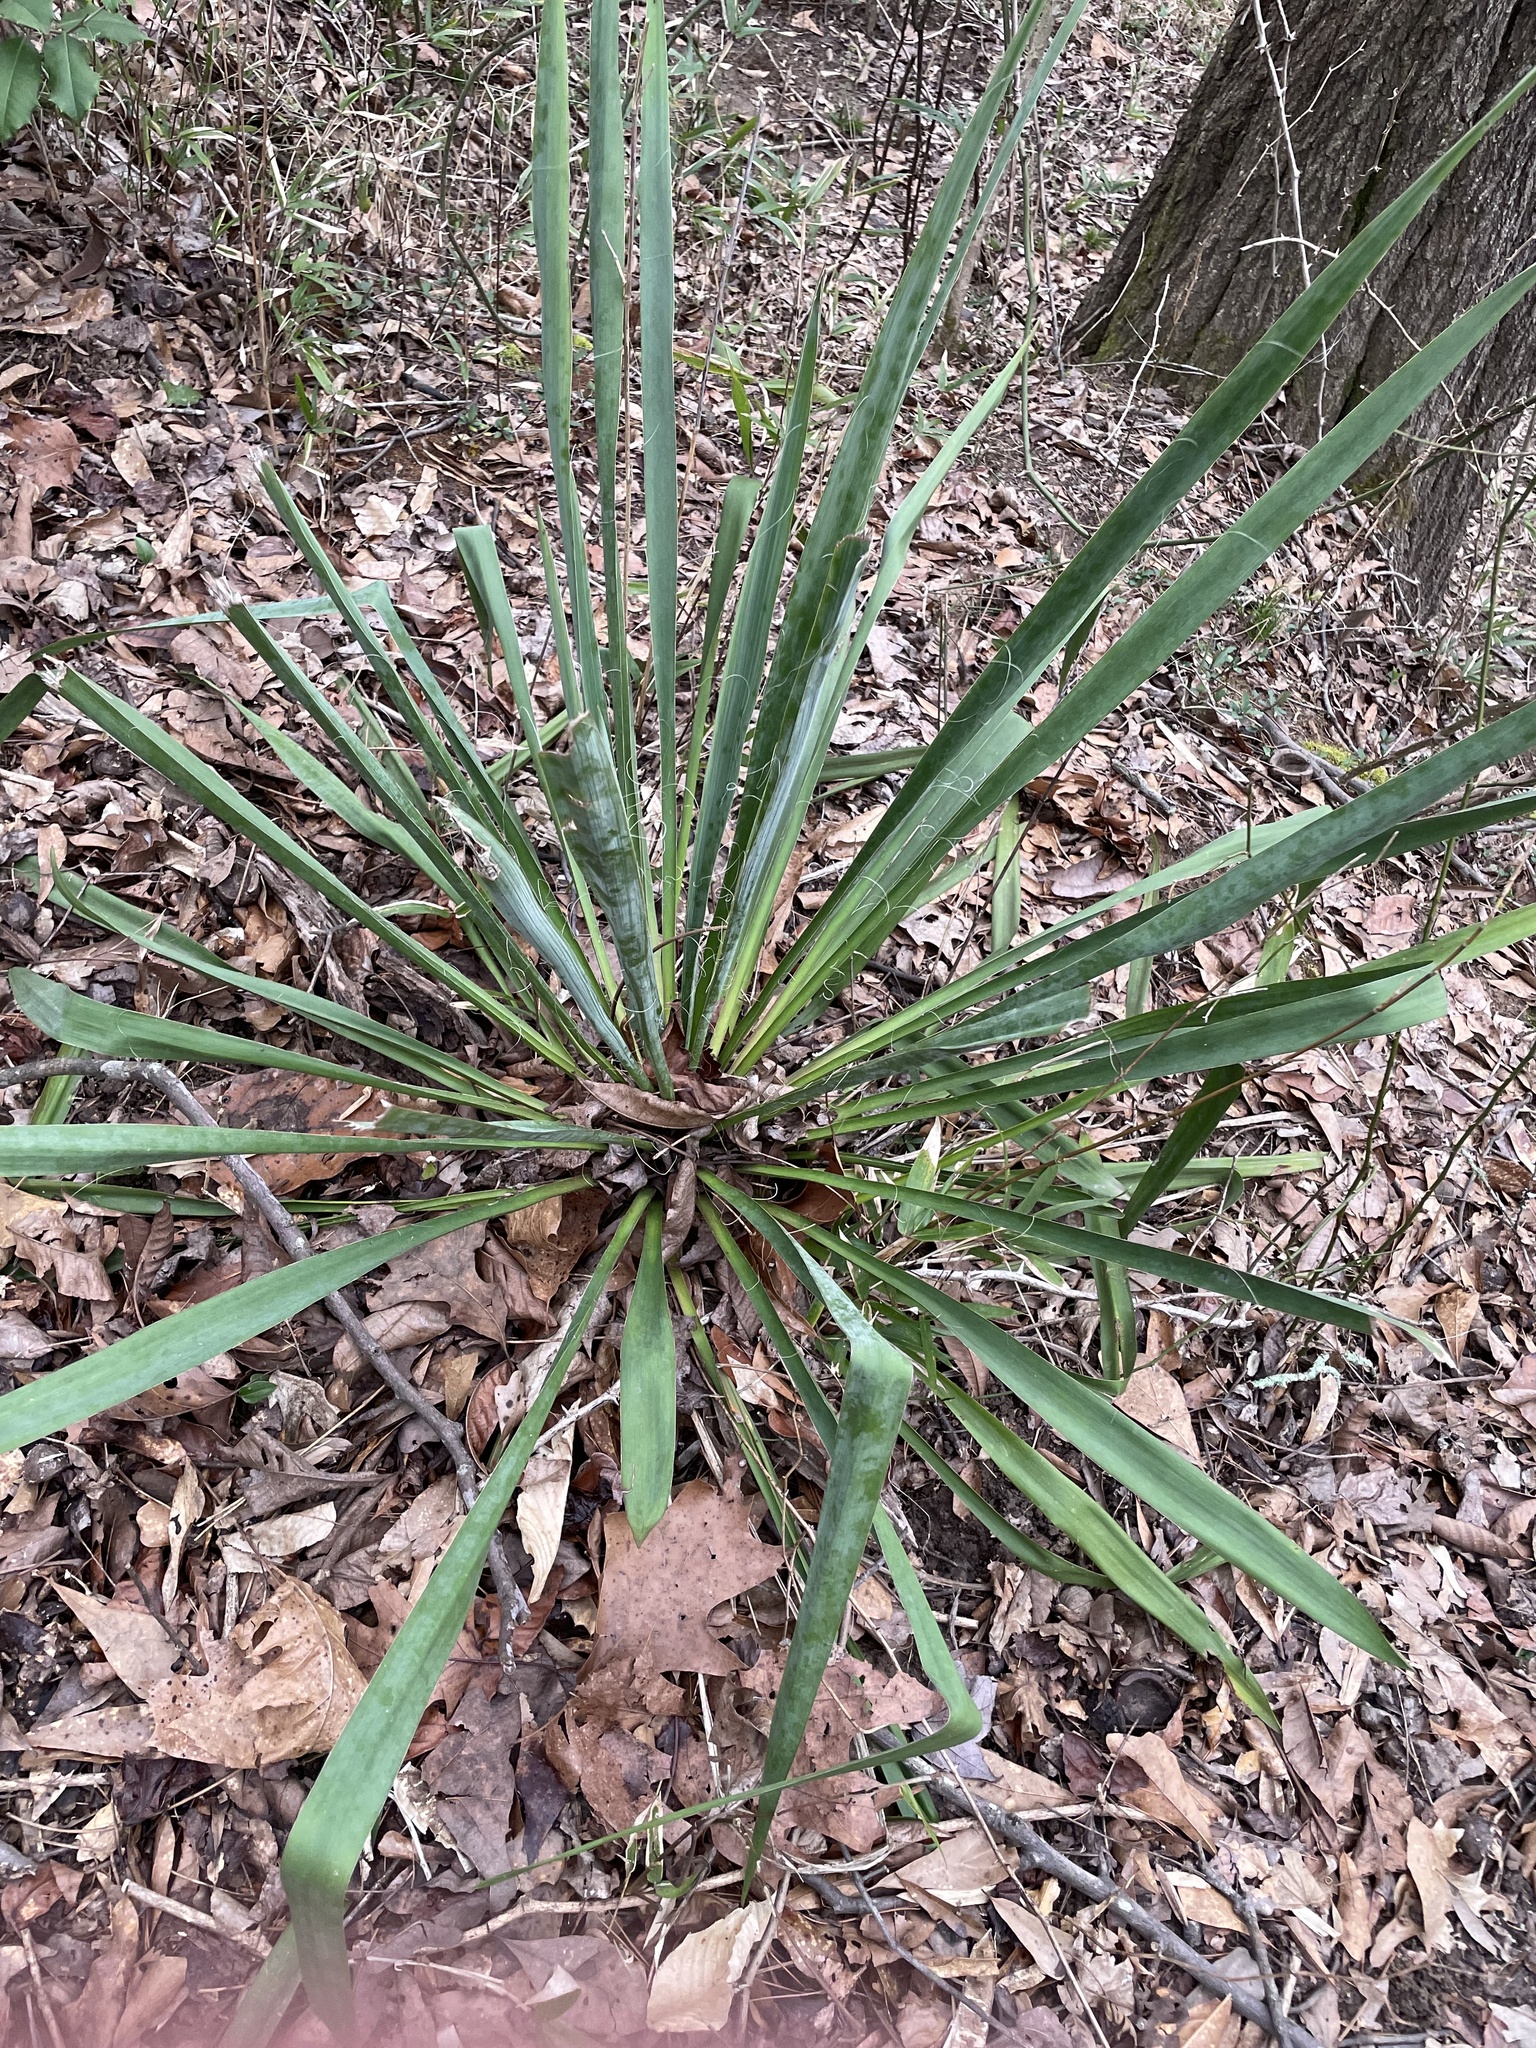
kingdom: Plantae
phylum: Tracheophyta
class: Liliopsida
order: Asparagales
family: Asparagaceae
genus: Yucca
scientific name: Yucca filamentosa
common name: Adam's-needle
